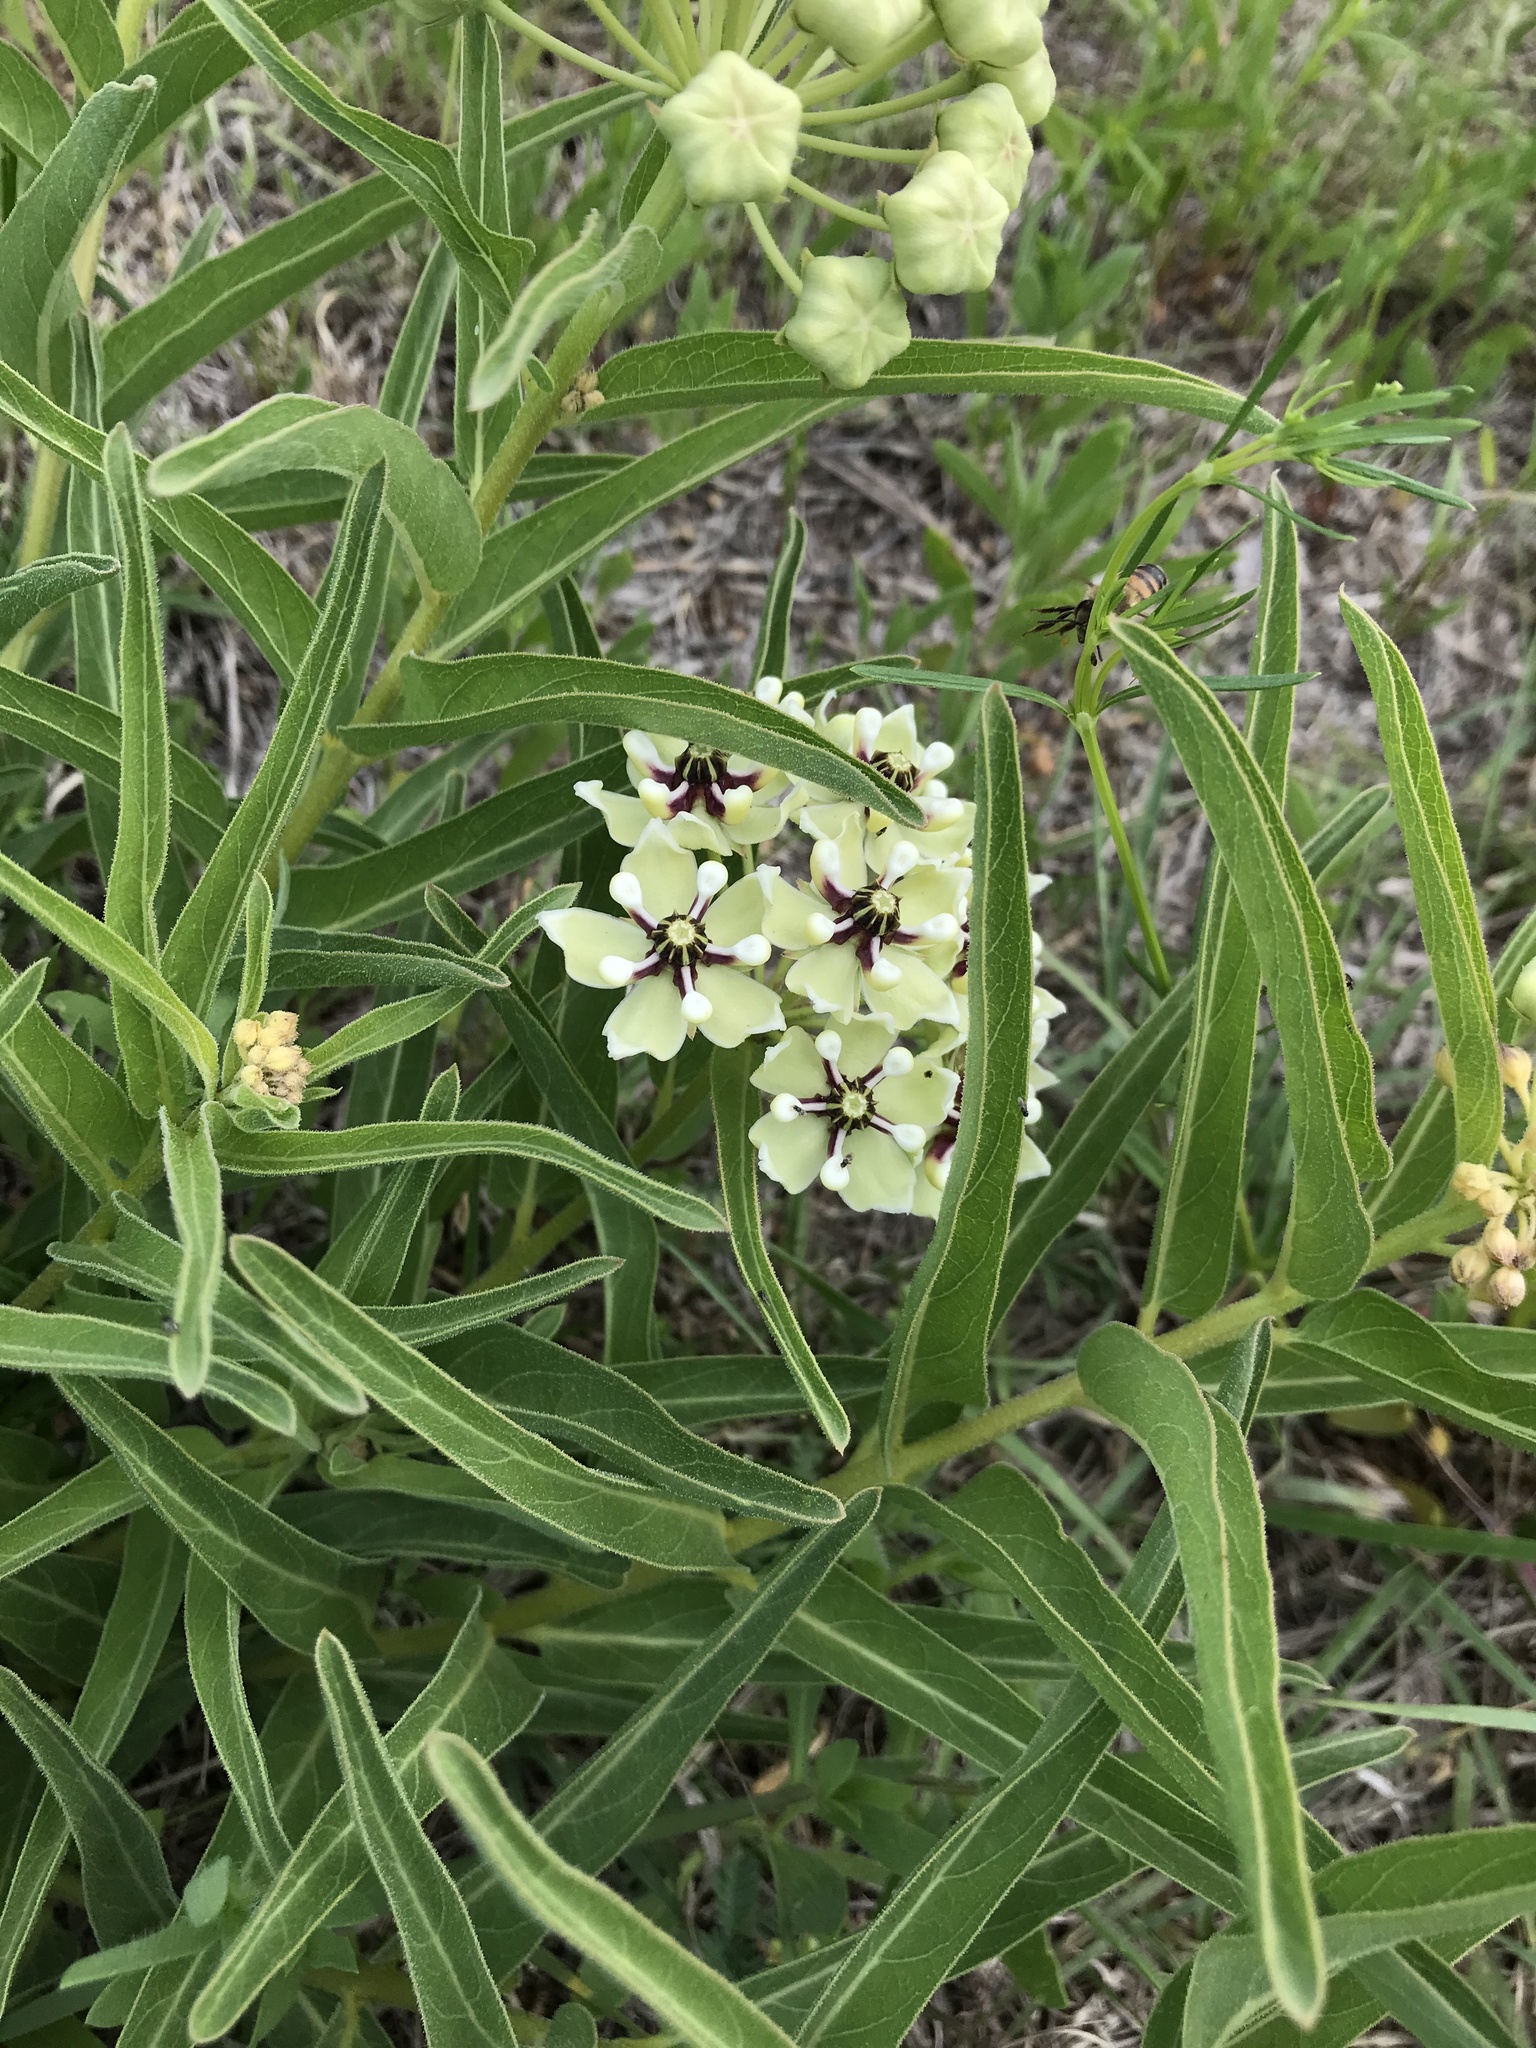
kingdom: Plantae
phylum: Tracheophyta
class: Magnoliopsida
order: Gentianales
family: Apocynaceae
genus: Asclepias
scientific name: Asclepias asperula
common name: Antelope horns
